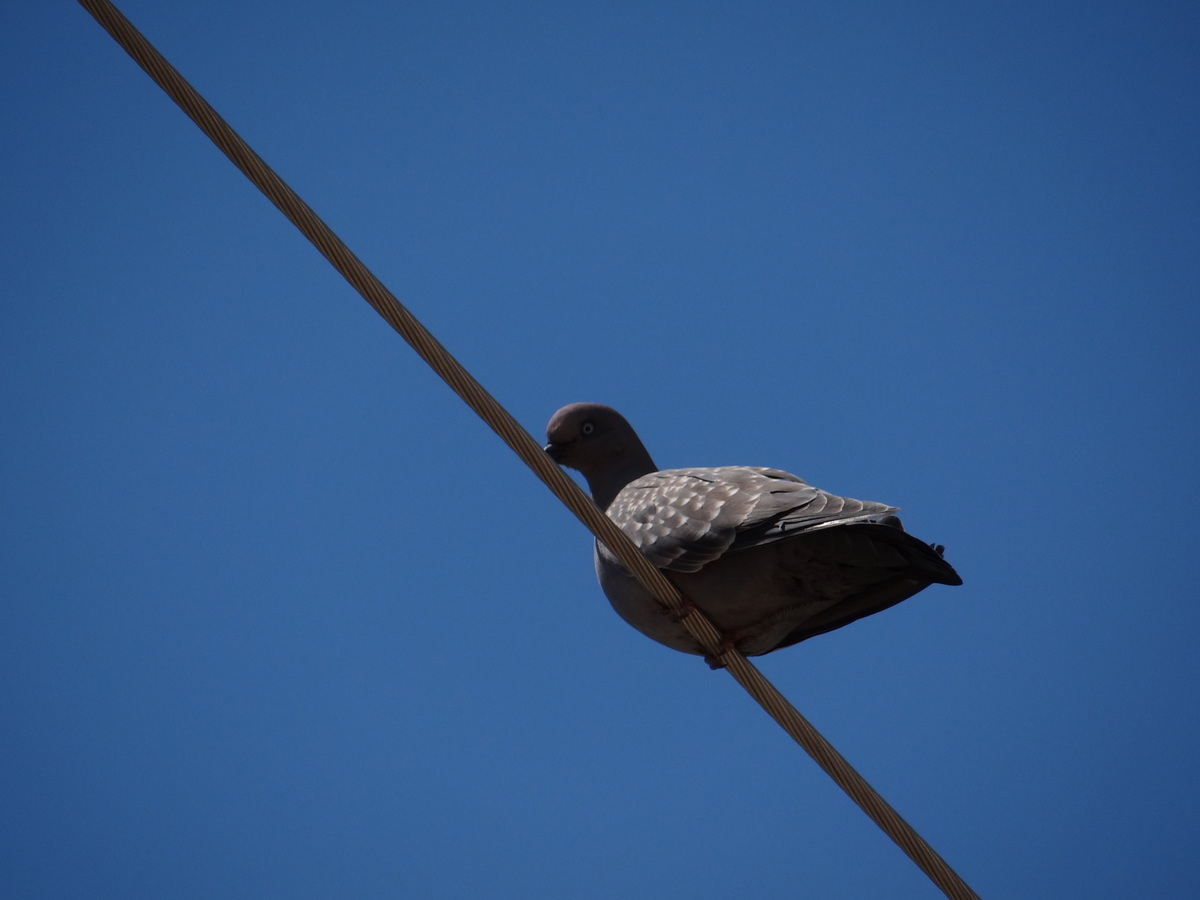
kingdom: Animalia
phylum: Chordata
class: Aves
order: Columbiformes
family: Columbidae
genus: Patagioenas
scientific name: Patagioenas maculosa
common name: Spot-winged pigeon
